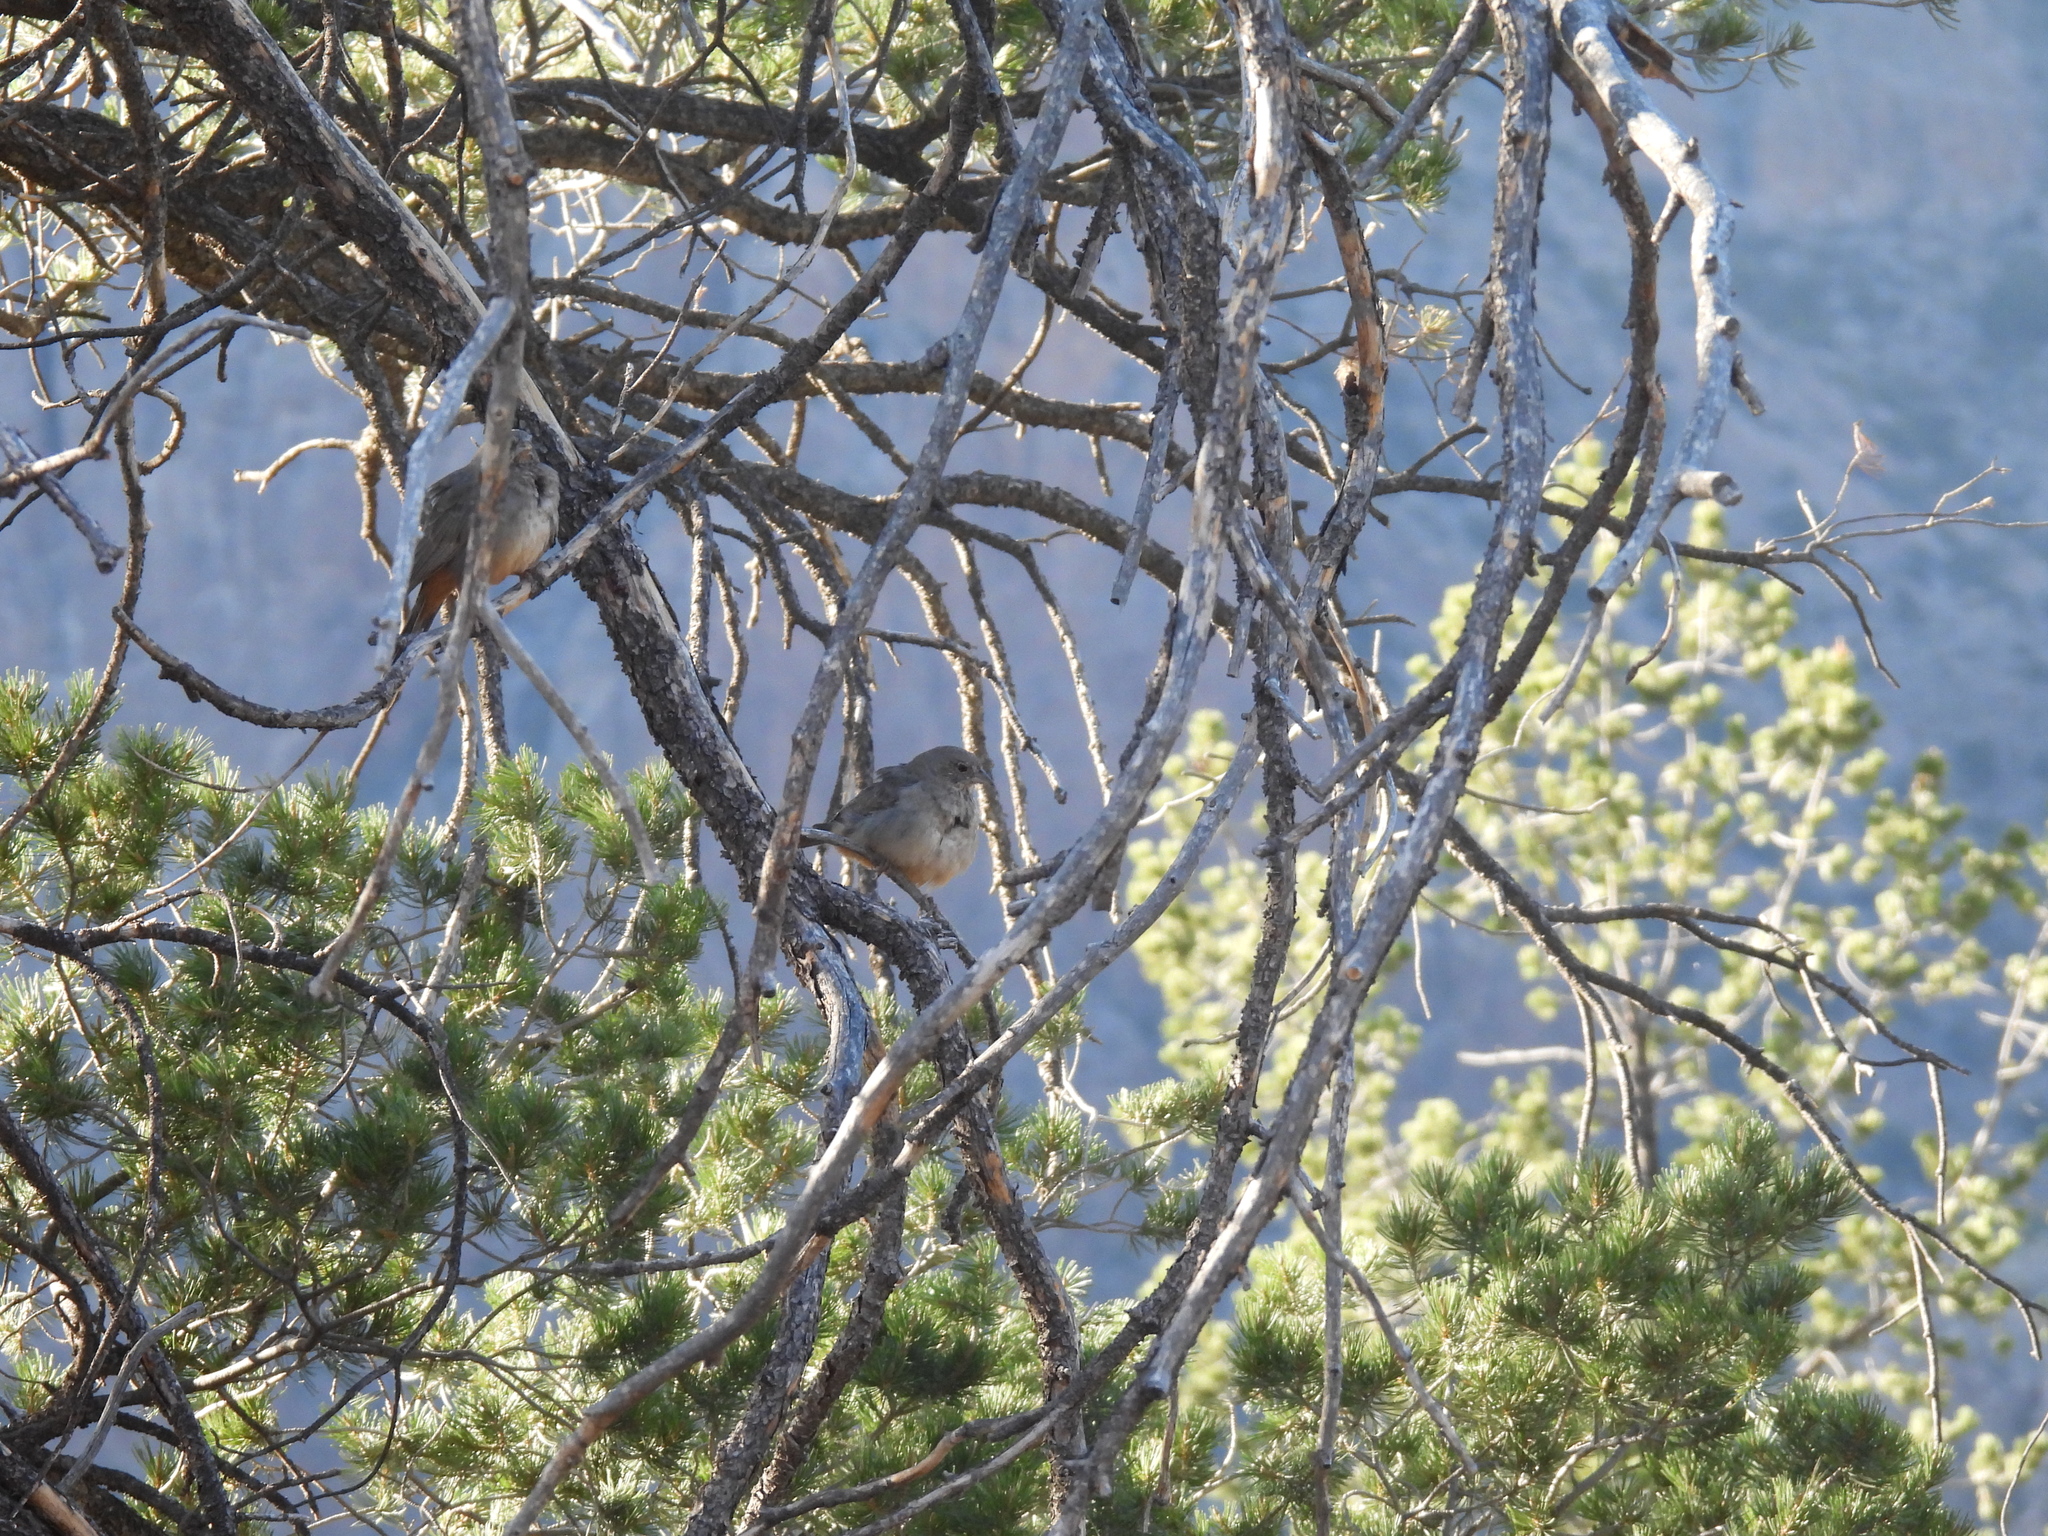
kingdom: Animalia
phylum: Chordata
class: Aves
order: Passeriformes
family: Passerellidae
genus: Melozone
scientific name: Melozone fusca
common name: Canyon towhee
